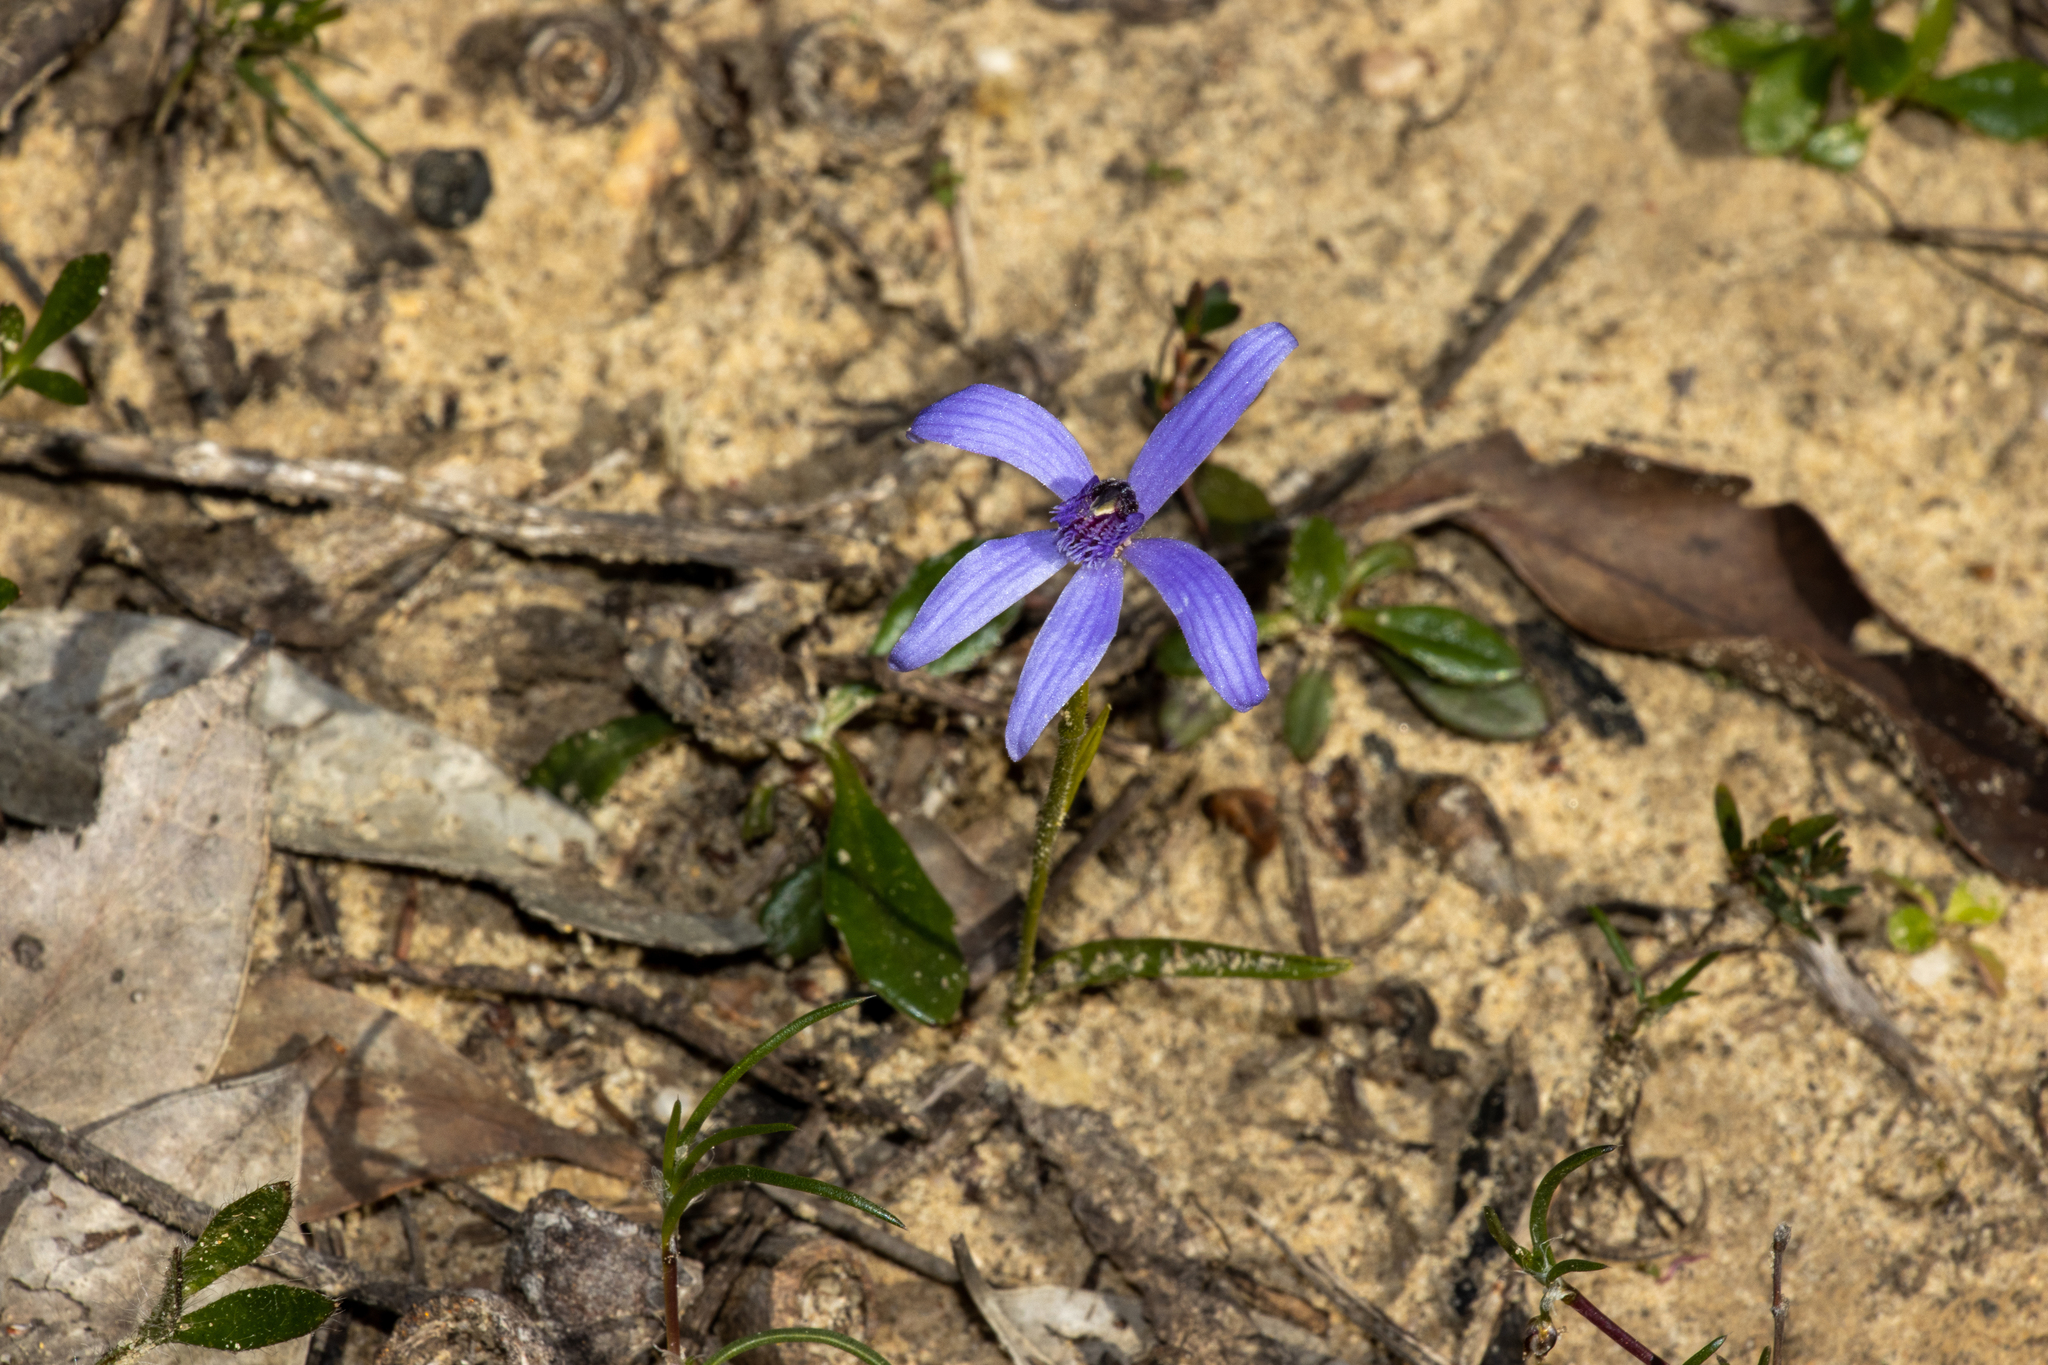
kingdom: Plantae
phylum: Tracheophyta
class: Liliopsida
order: Asparagales
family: Orchidaceae
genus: Pheladenia
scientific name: Pheladenia deformis
